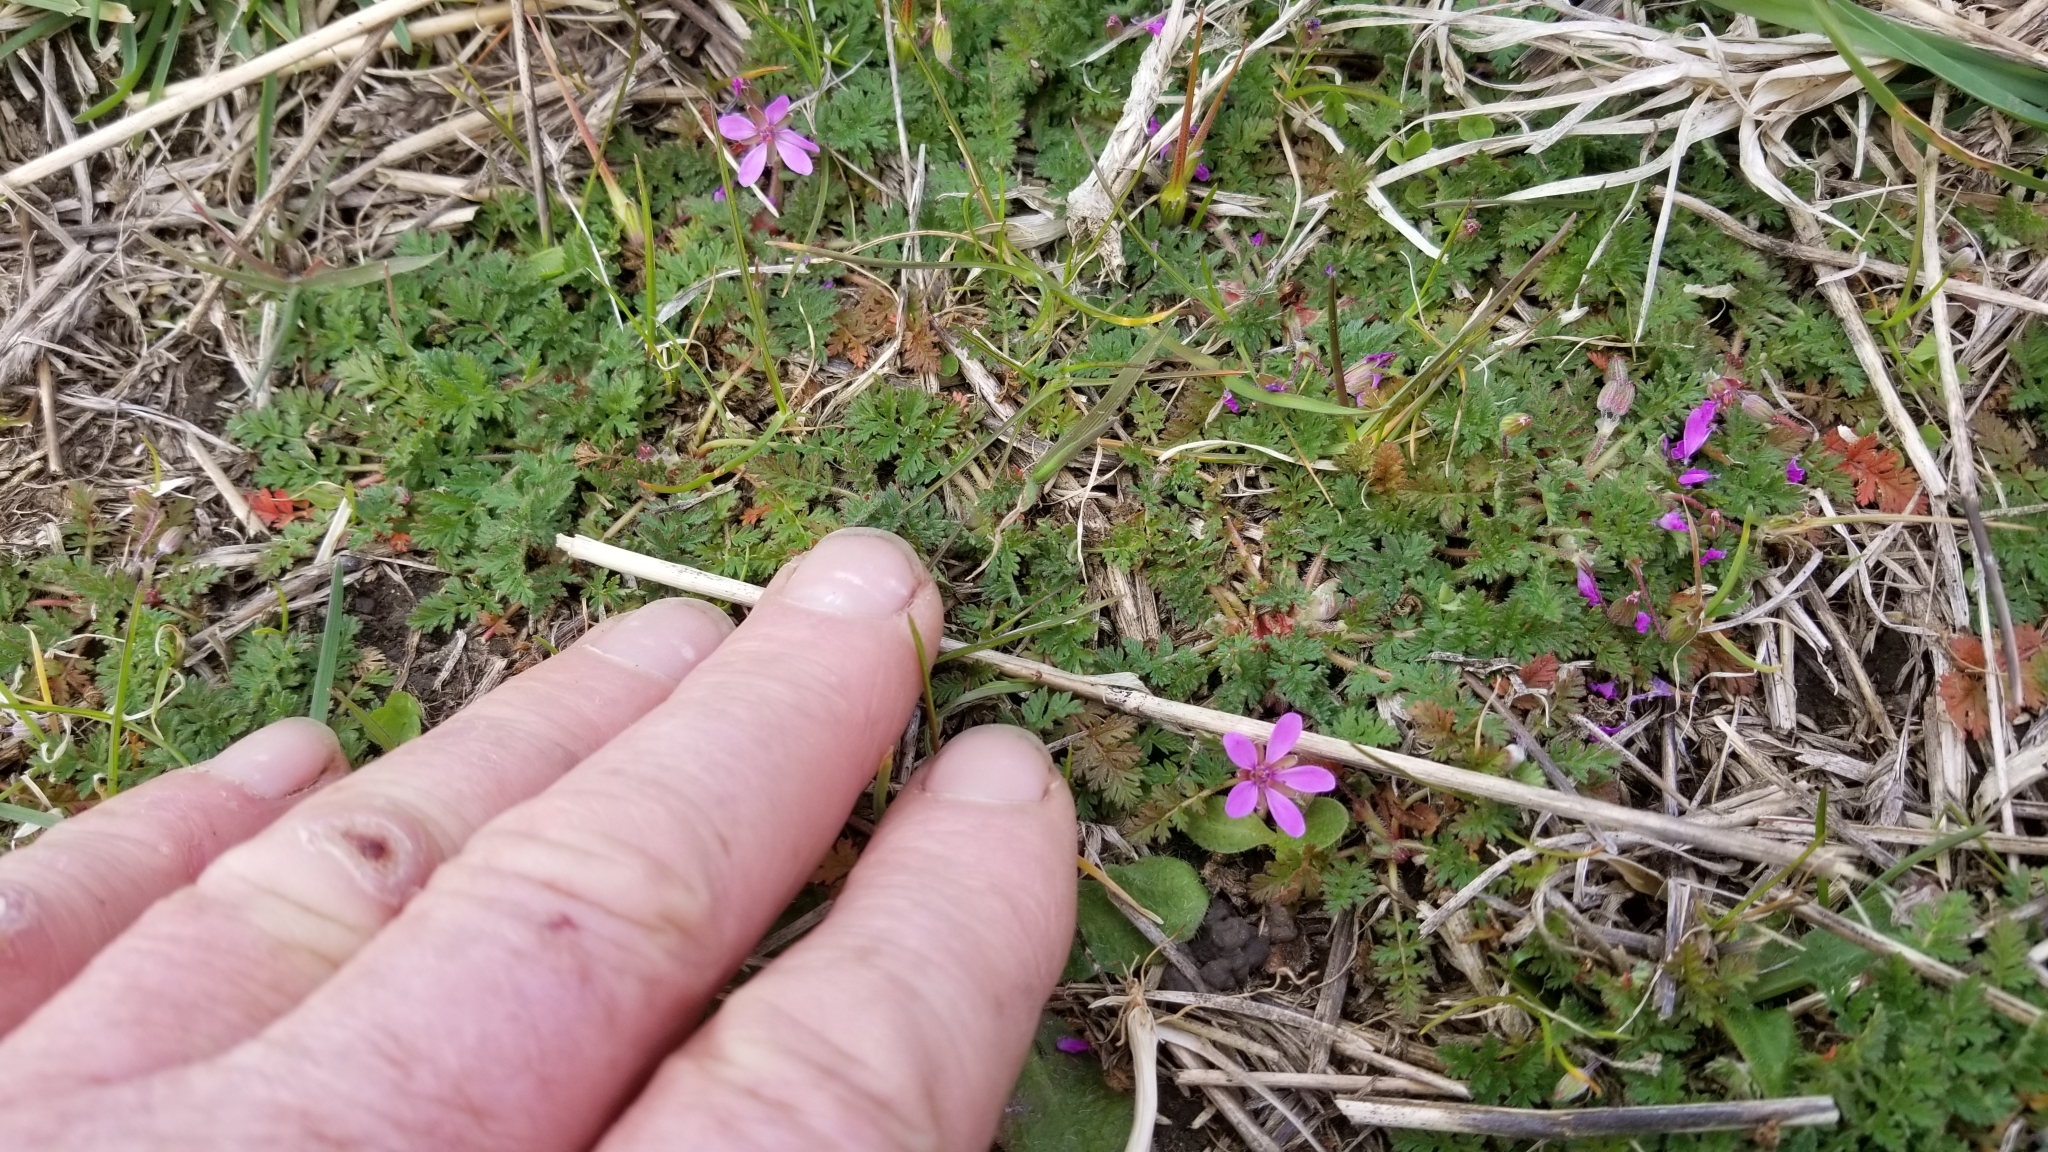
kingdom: Plantae
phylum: Tracheophyta
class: Magnoliopsida
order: Geraniales
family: Geraniaceae
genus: Erodium
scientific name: Erodium cicutarium
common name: Common stork's-bill
